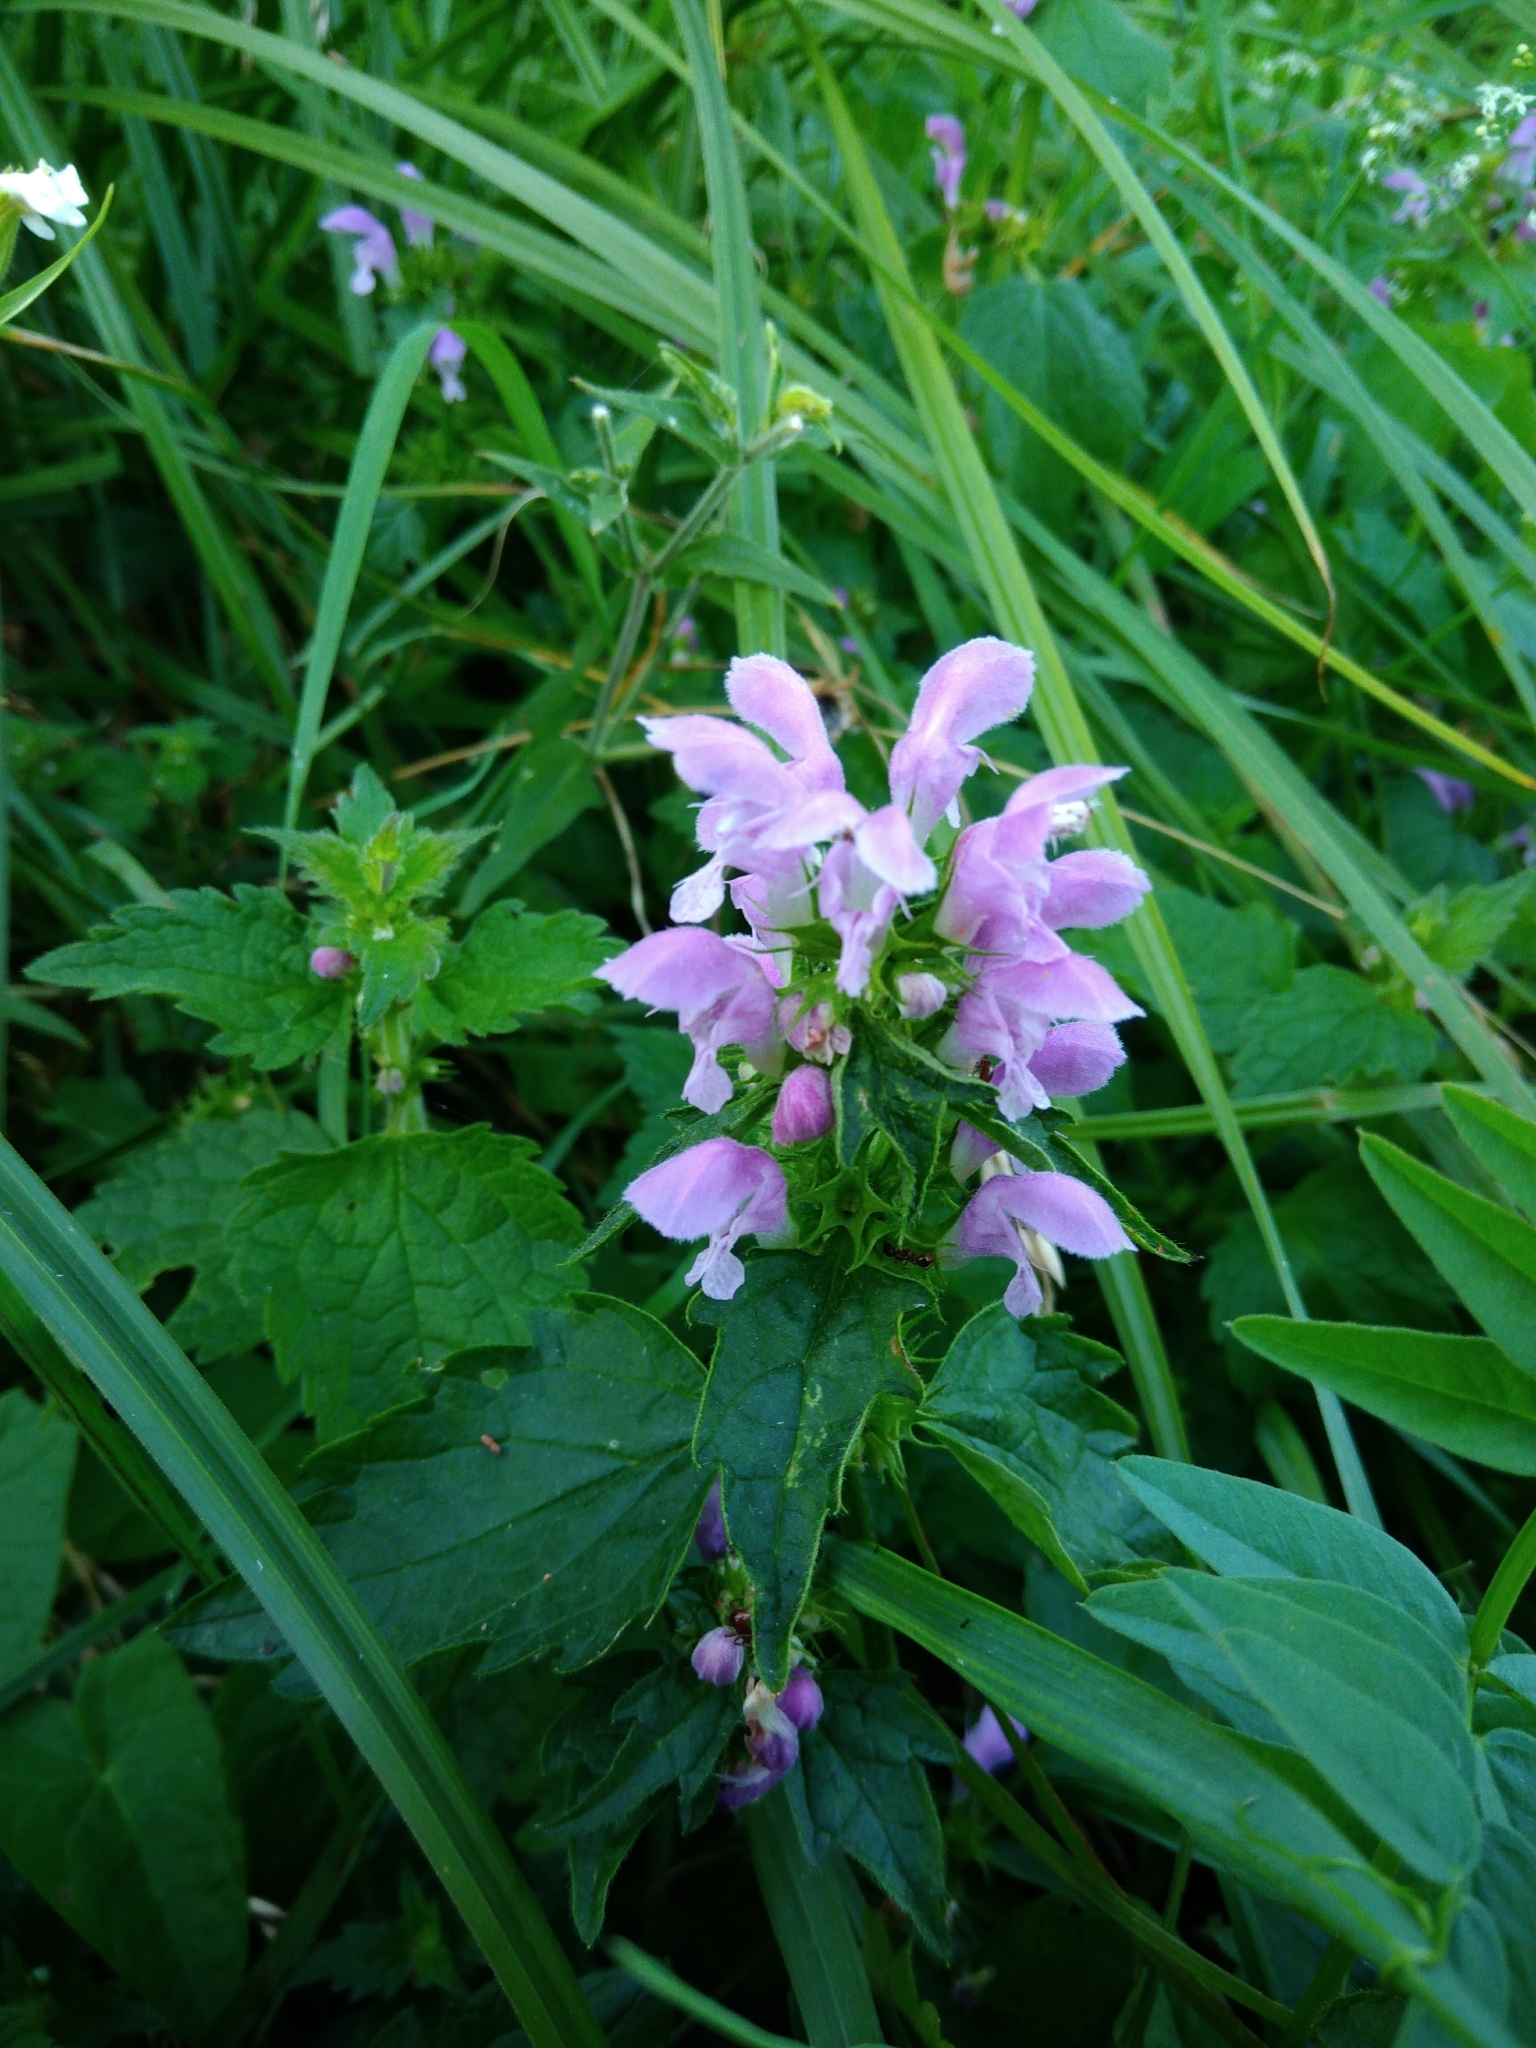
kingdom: Plantae
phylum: Tracheophyta
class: Magnoliopsida
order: Lamiales
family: Lamiaceae
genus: Lamium
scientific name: Lamium maculatum
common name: Spotted dead-nettle
